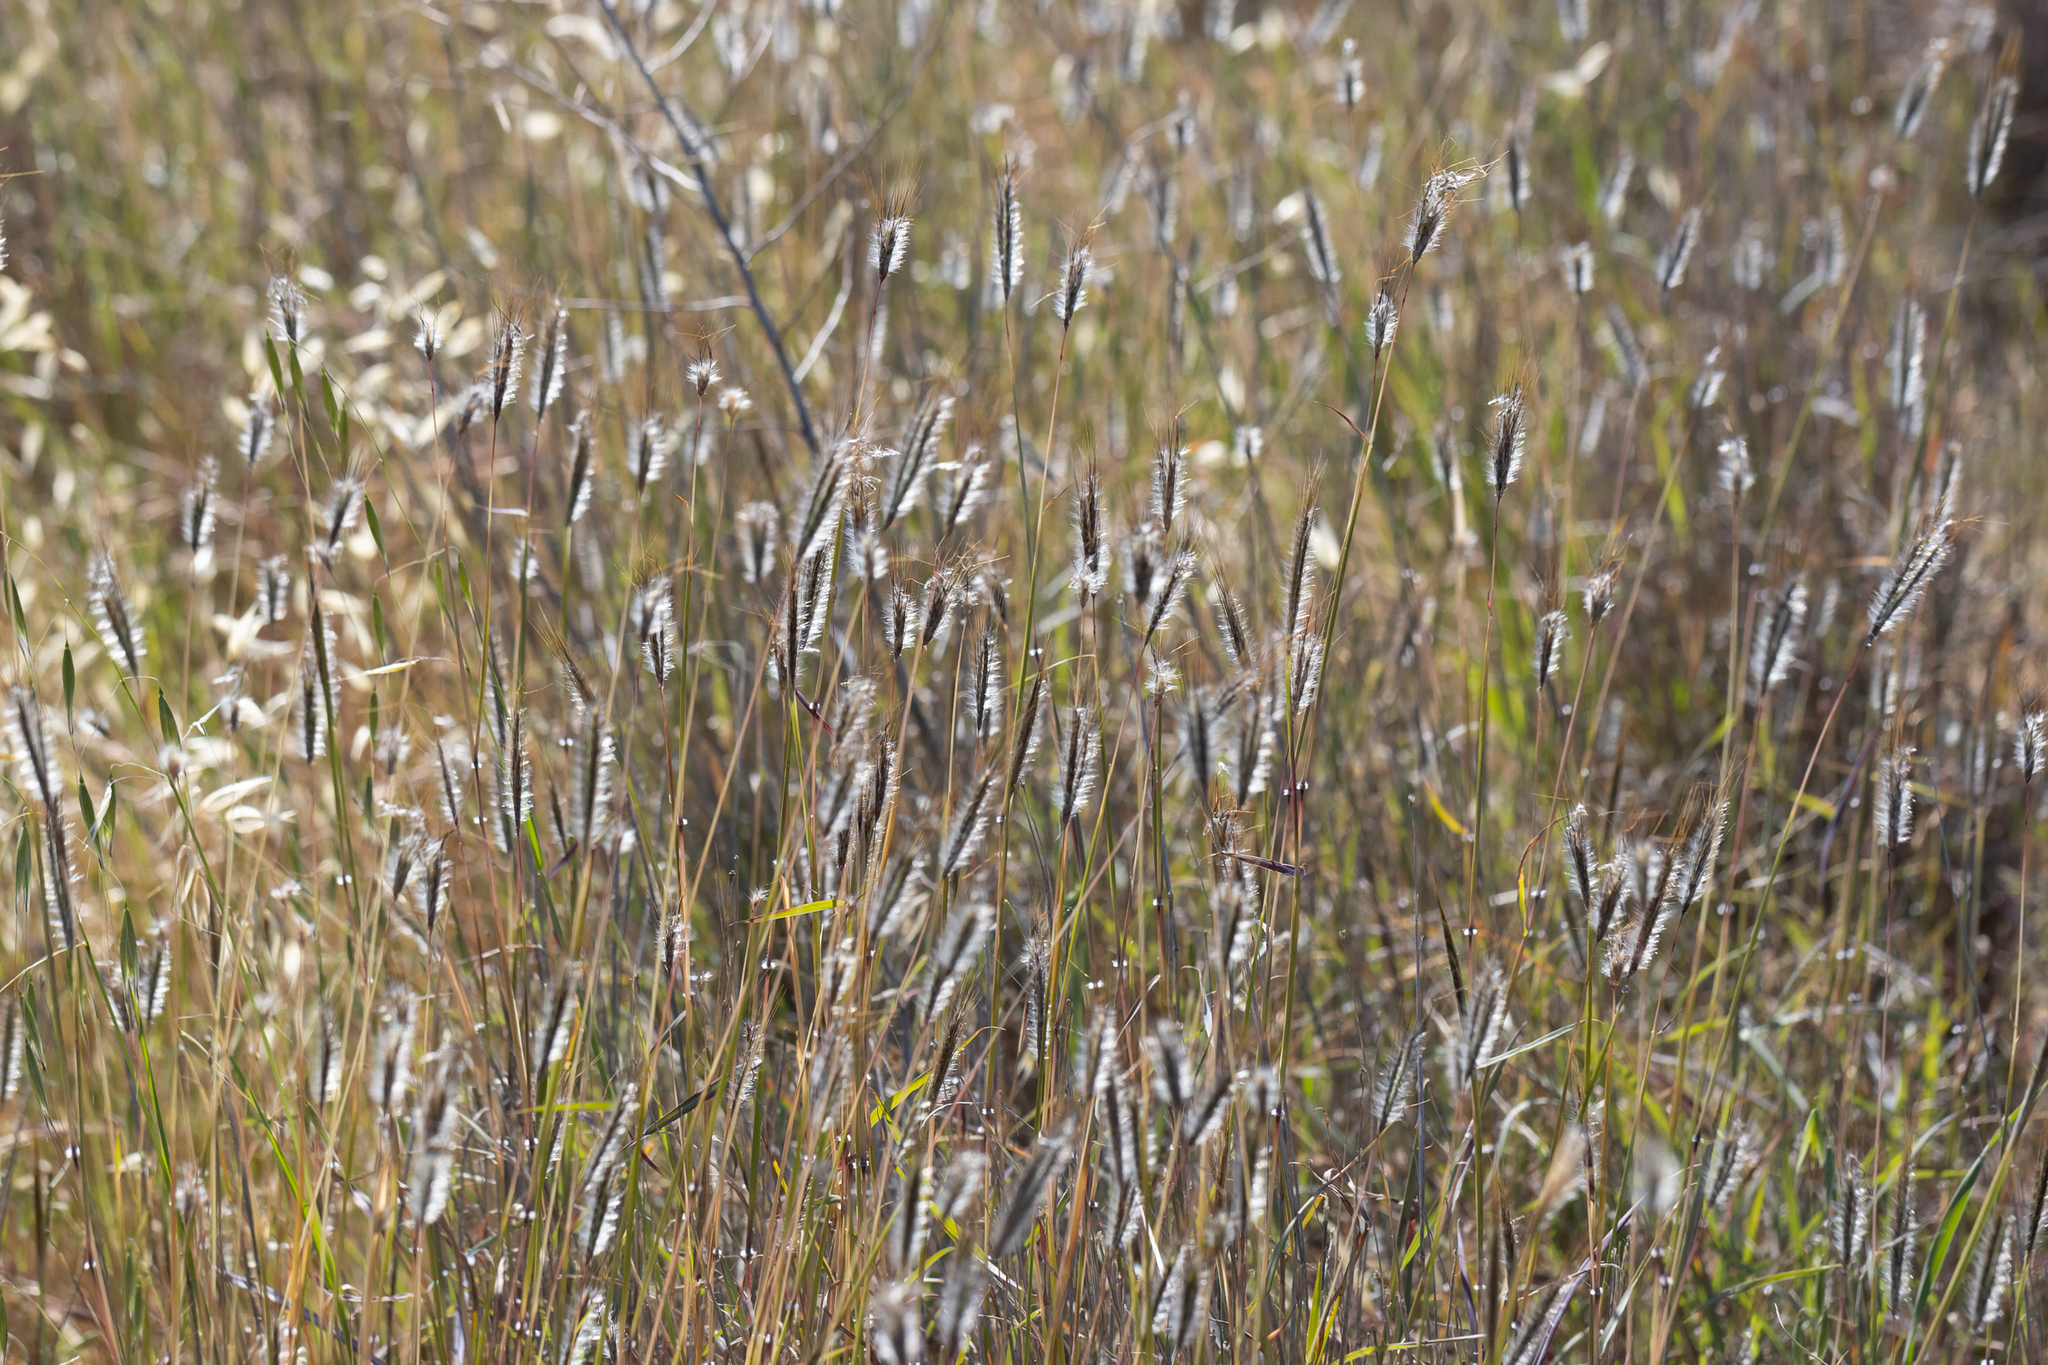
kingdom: Plantae
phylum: Tracheophyta
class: Liliopsida
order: Poales
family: Poaceae
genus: Dichanthium
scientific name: Dichanthium sericeum
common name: Silky bluestem
